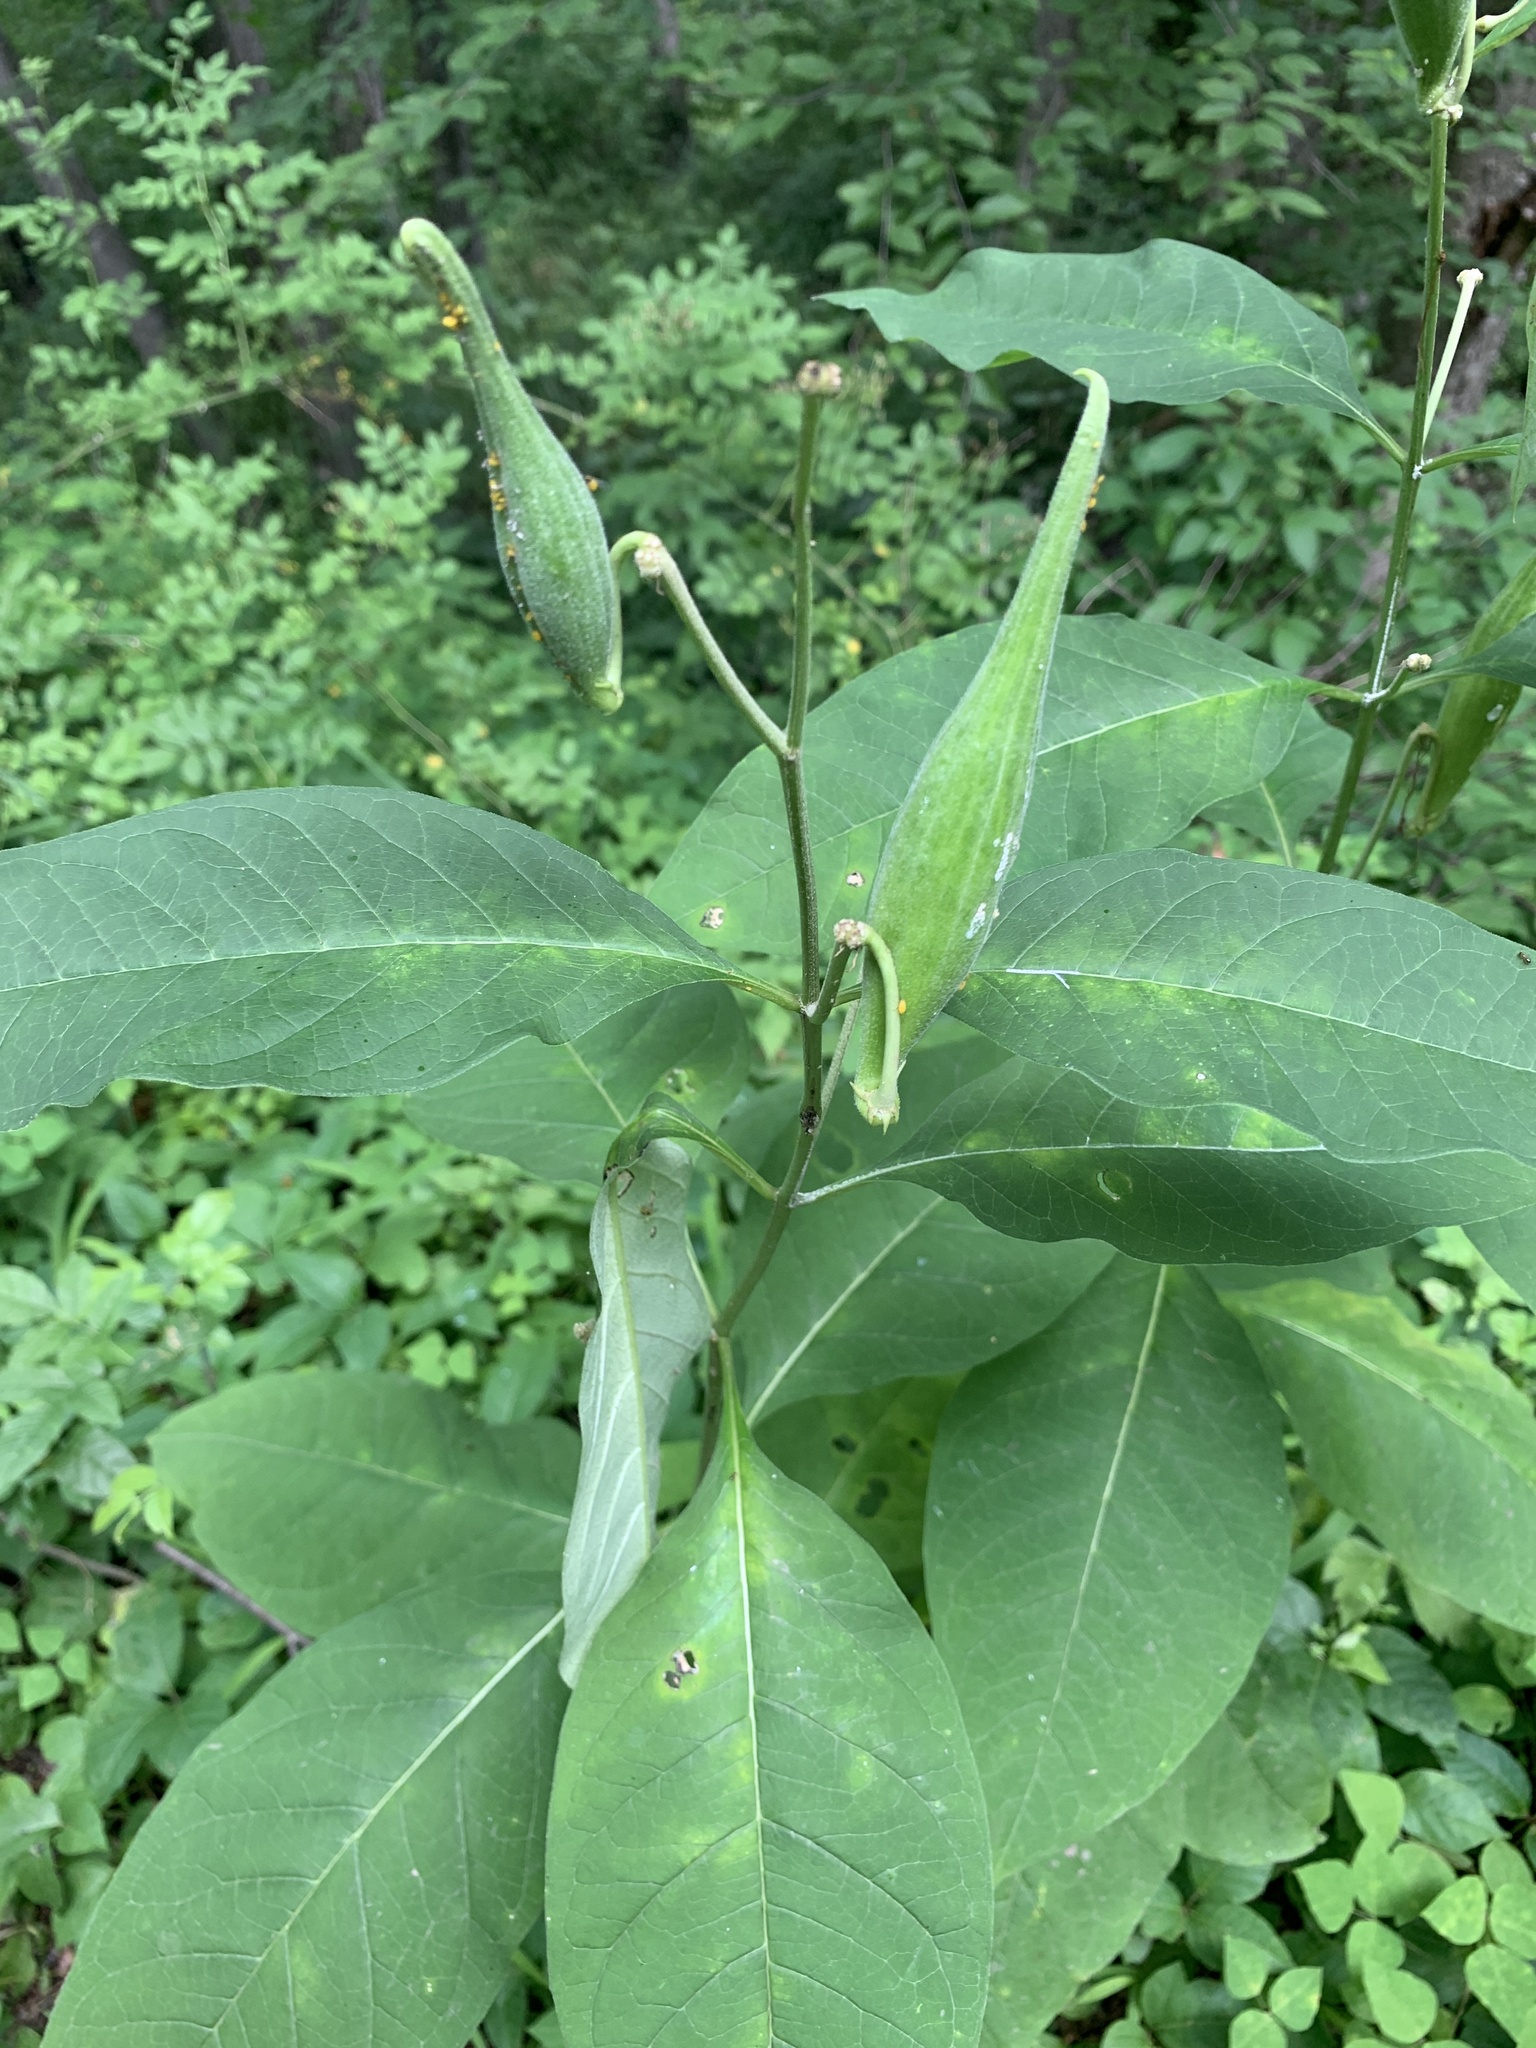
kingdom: Plantae
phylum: Tracheophyta
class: Magnoliopsida
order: Gentianales
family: Apocynaceae
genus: Asclepias
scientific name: Asclepias exaltata
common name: Poke milkweed
